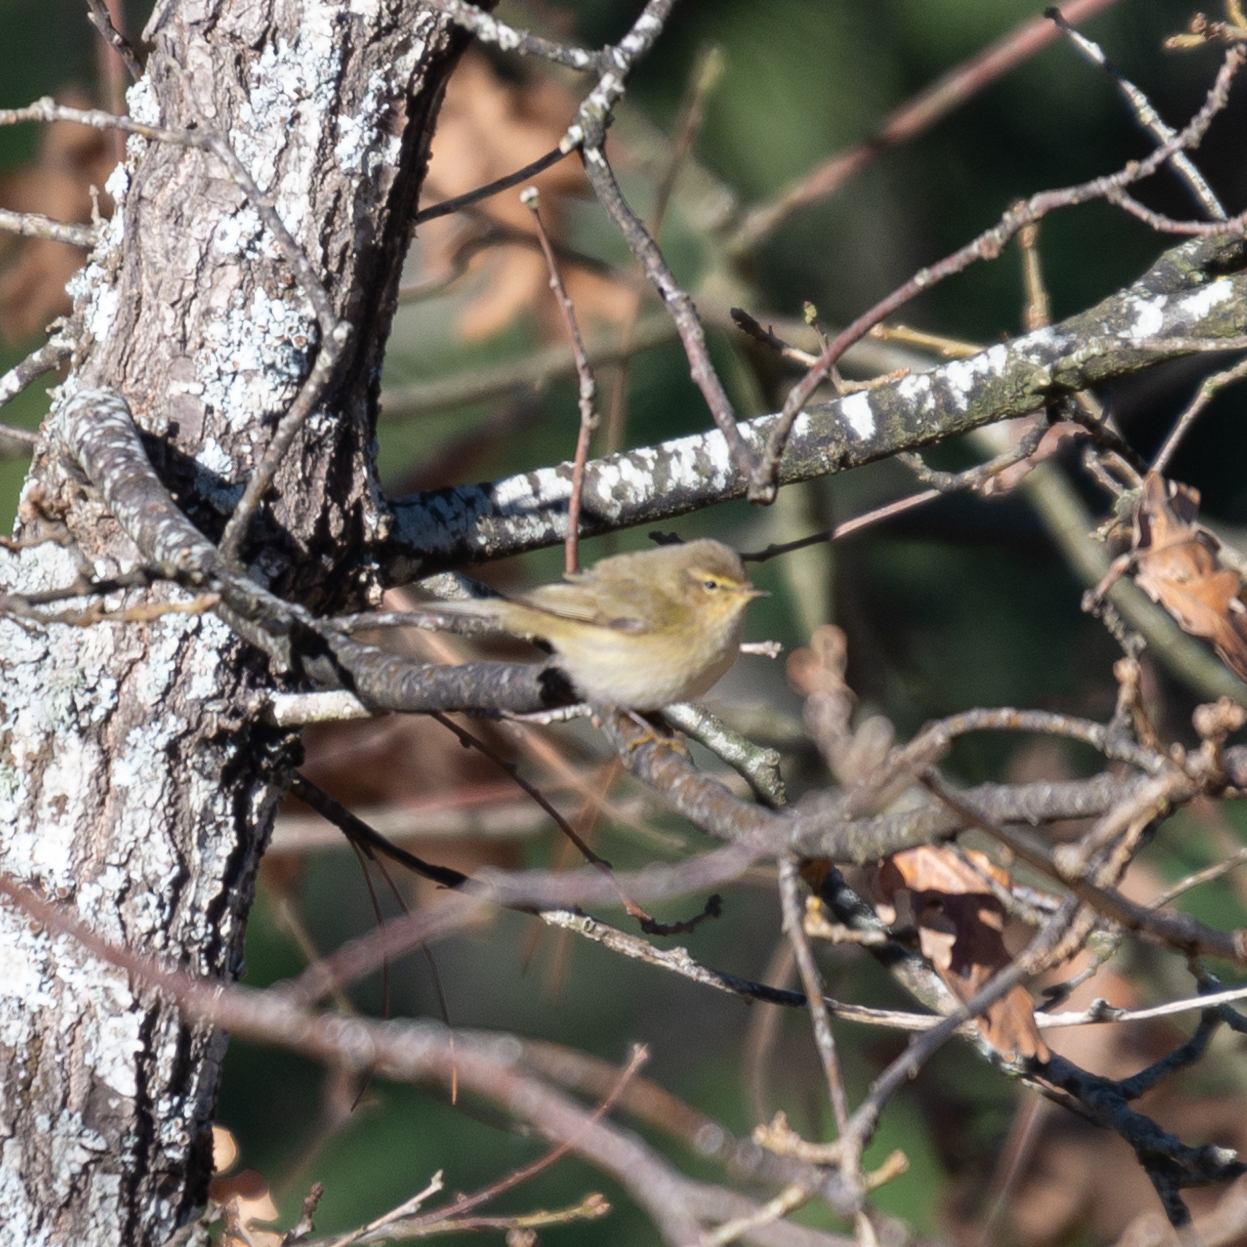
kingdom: Animalia
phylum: Chordata
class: Aves
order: Passeriformes
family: Phylloscopidae
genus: Phylloscopus
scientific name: Phylloscopus collybita
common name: Common chiffchaff
